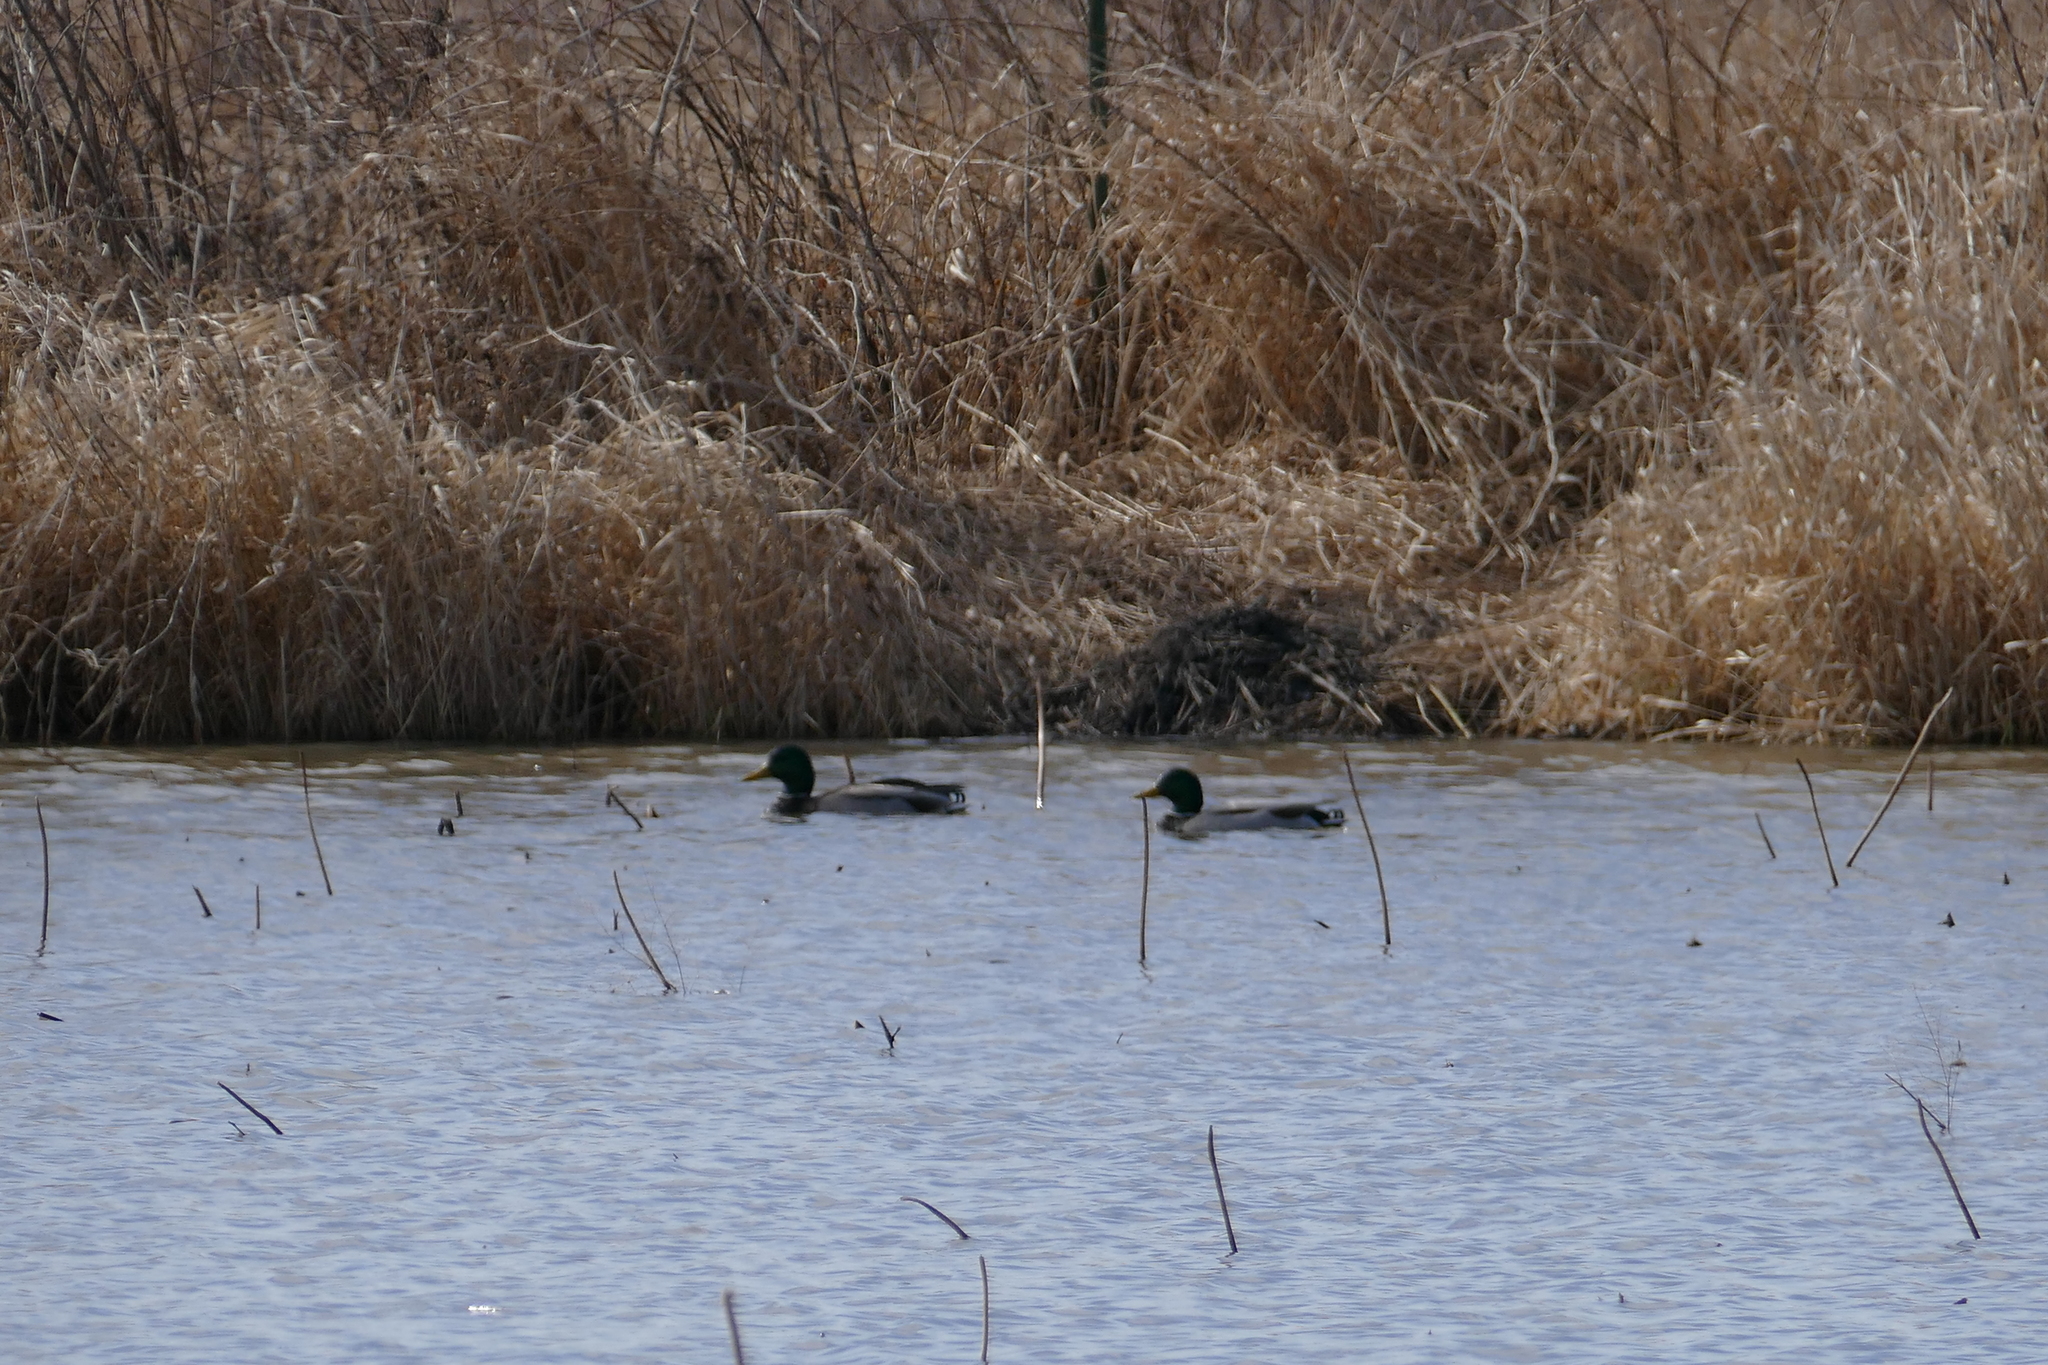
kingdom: Animalia
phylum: Chordata
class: Aves
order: Anseriformes
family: Anatidae
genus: Anas
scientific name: Anas platyrhynchos
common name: Mallard
